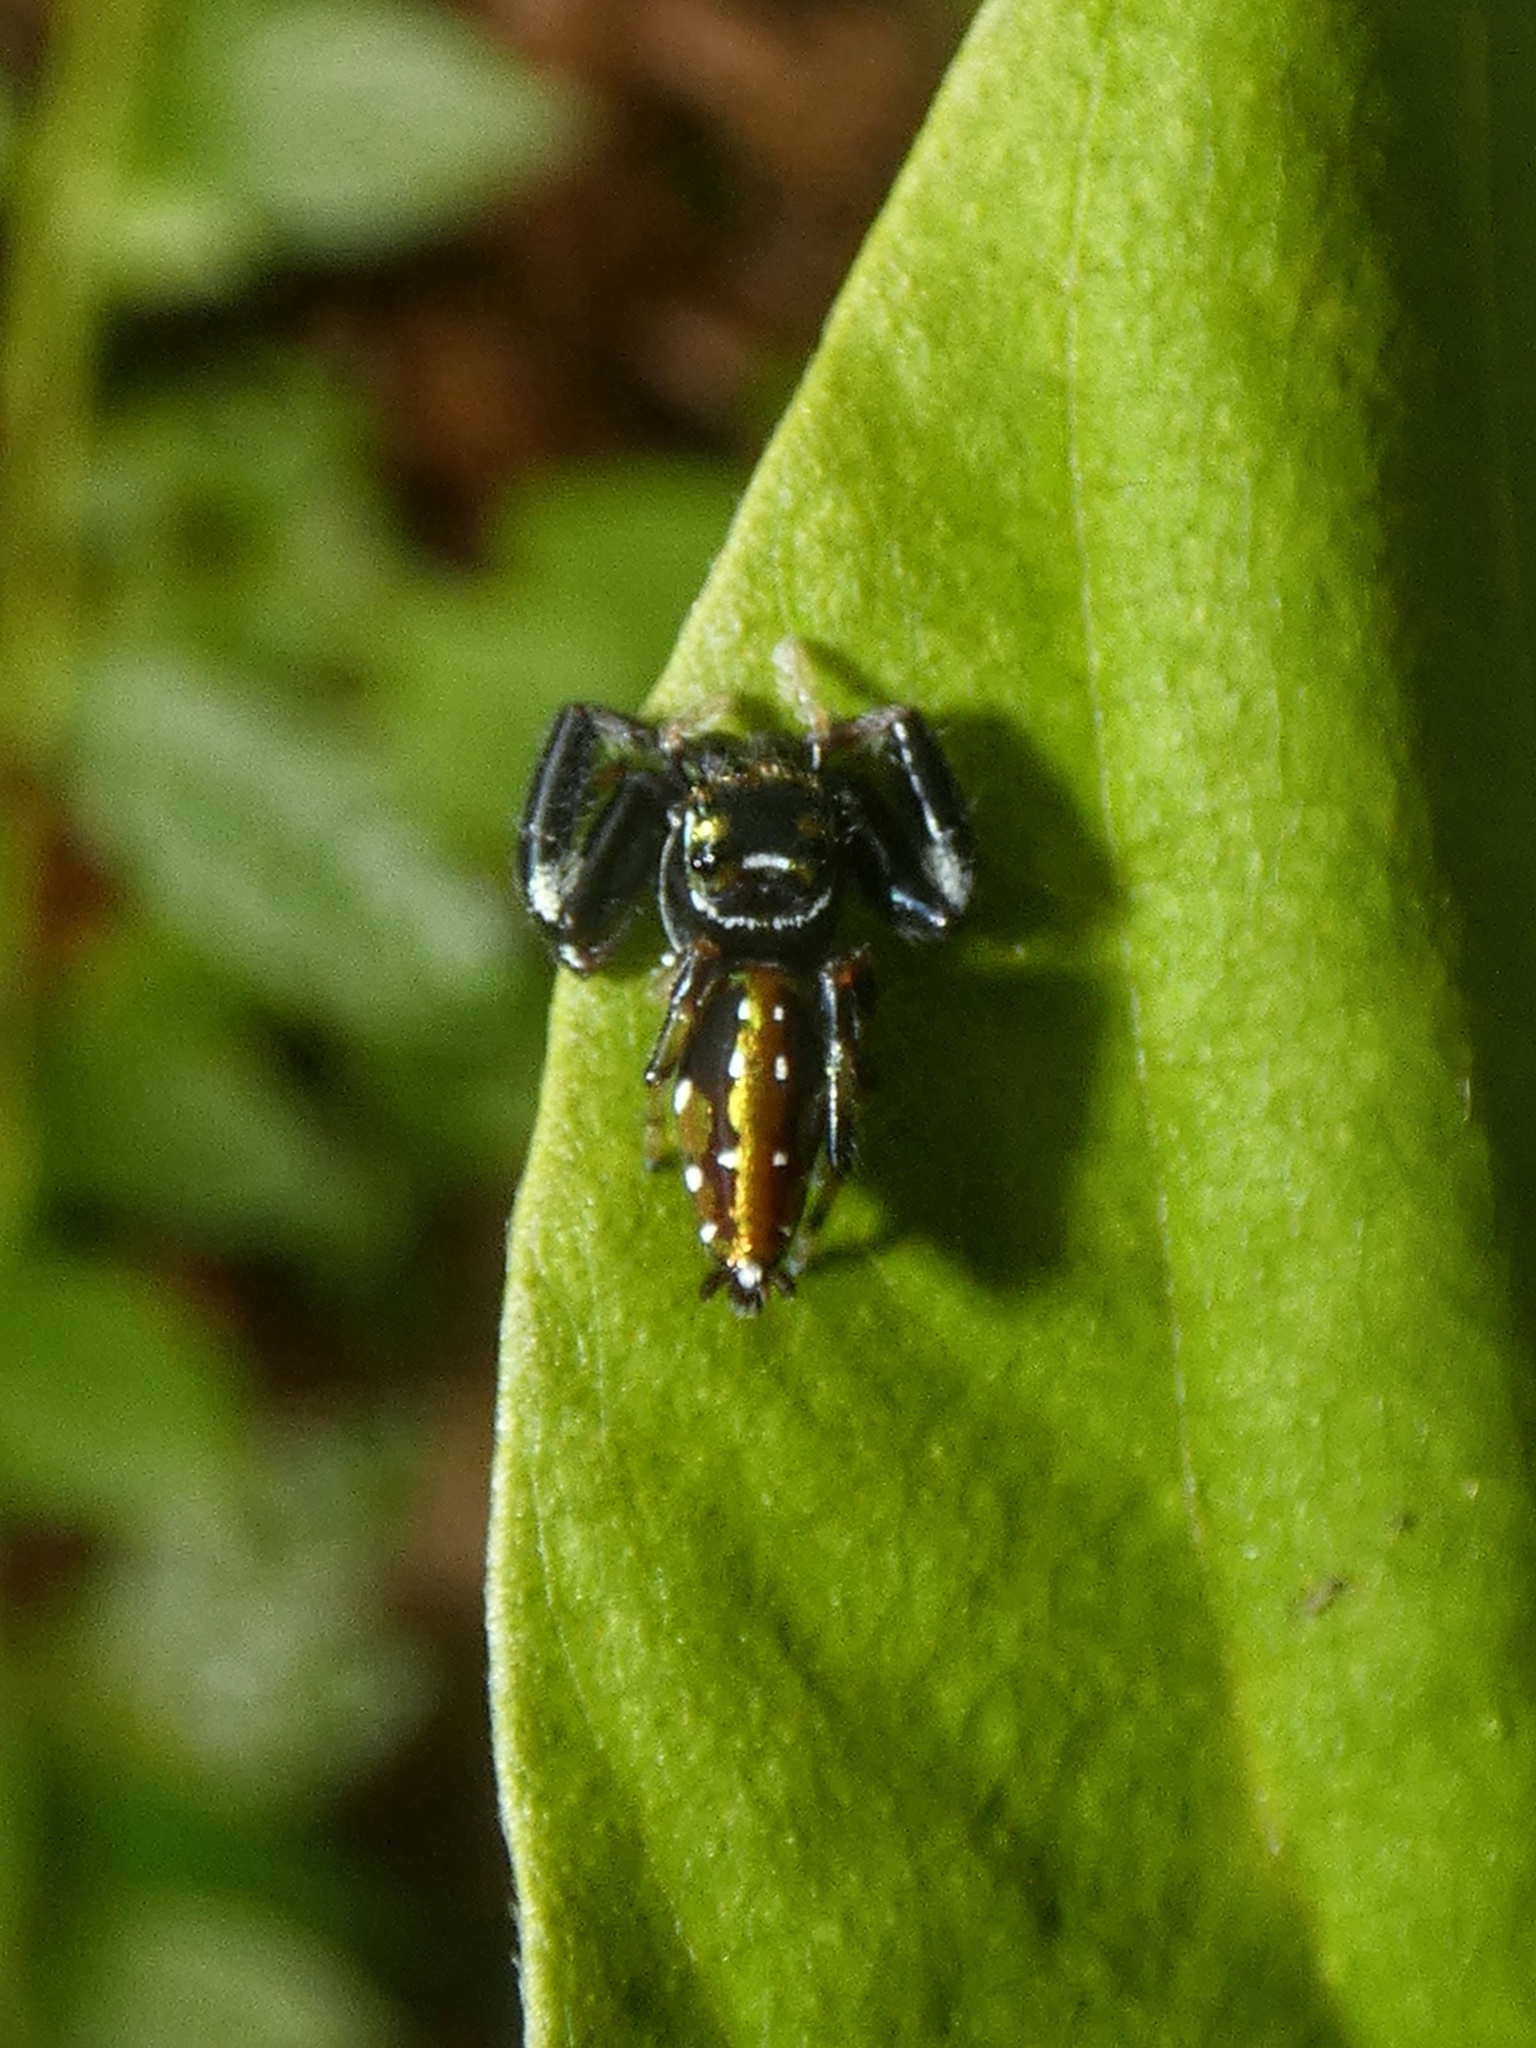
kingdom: Animalia
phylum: Arthropoda
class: Arachnida
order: Araneae
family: Salticidae
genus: Lurio
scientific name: Lurio solennis
